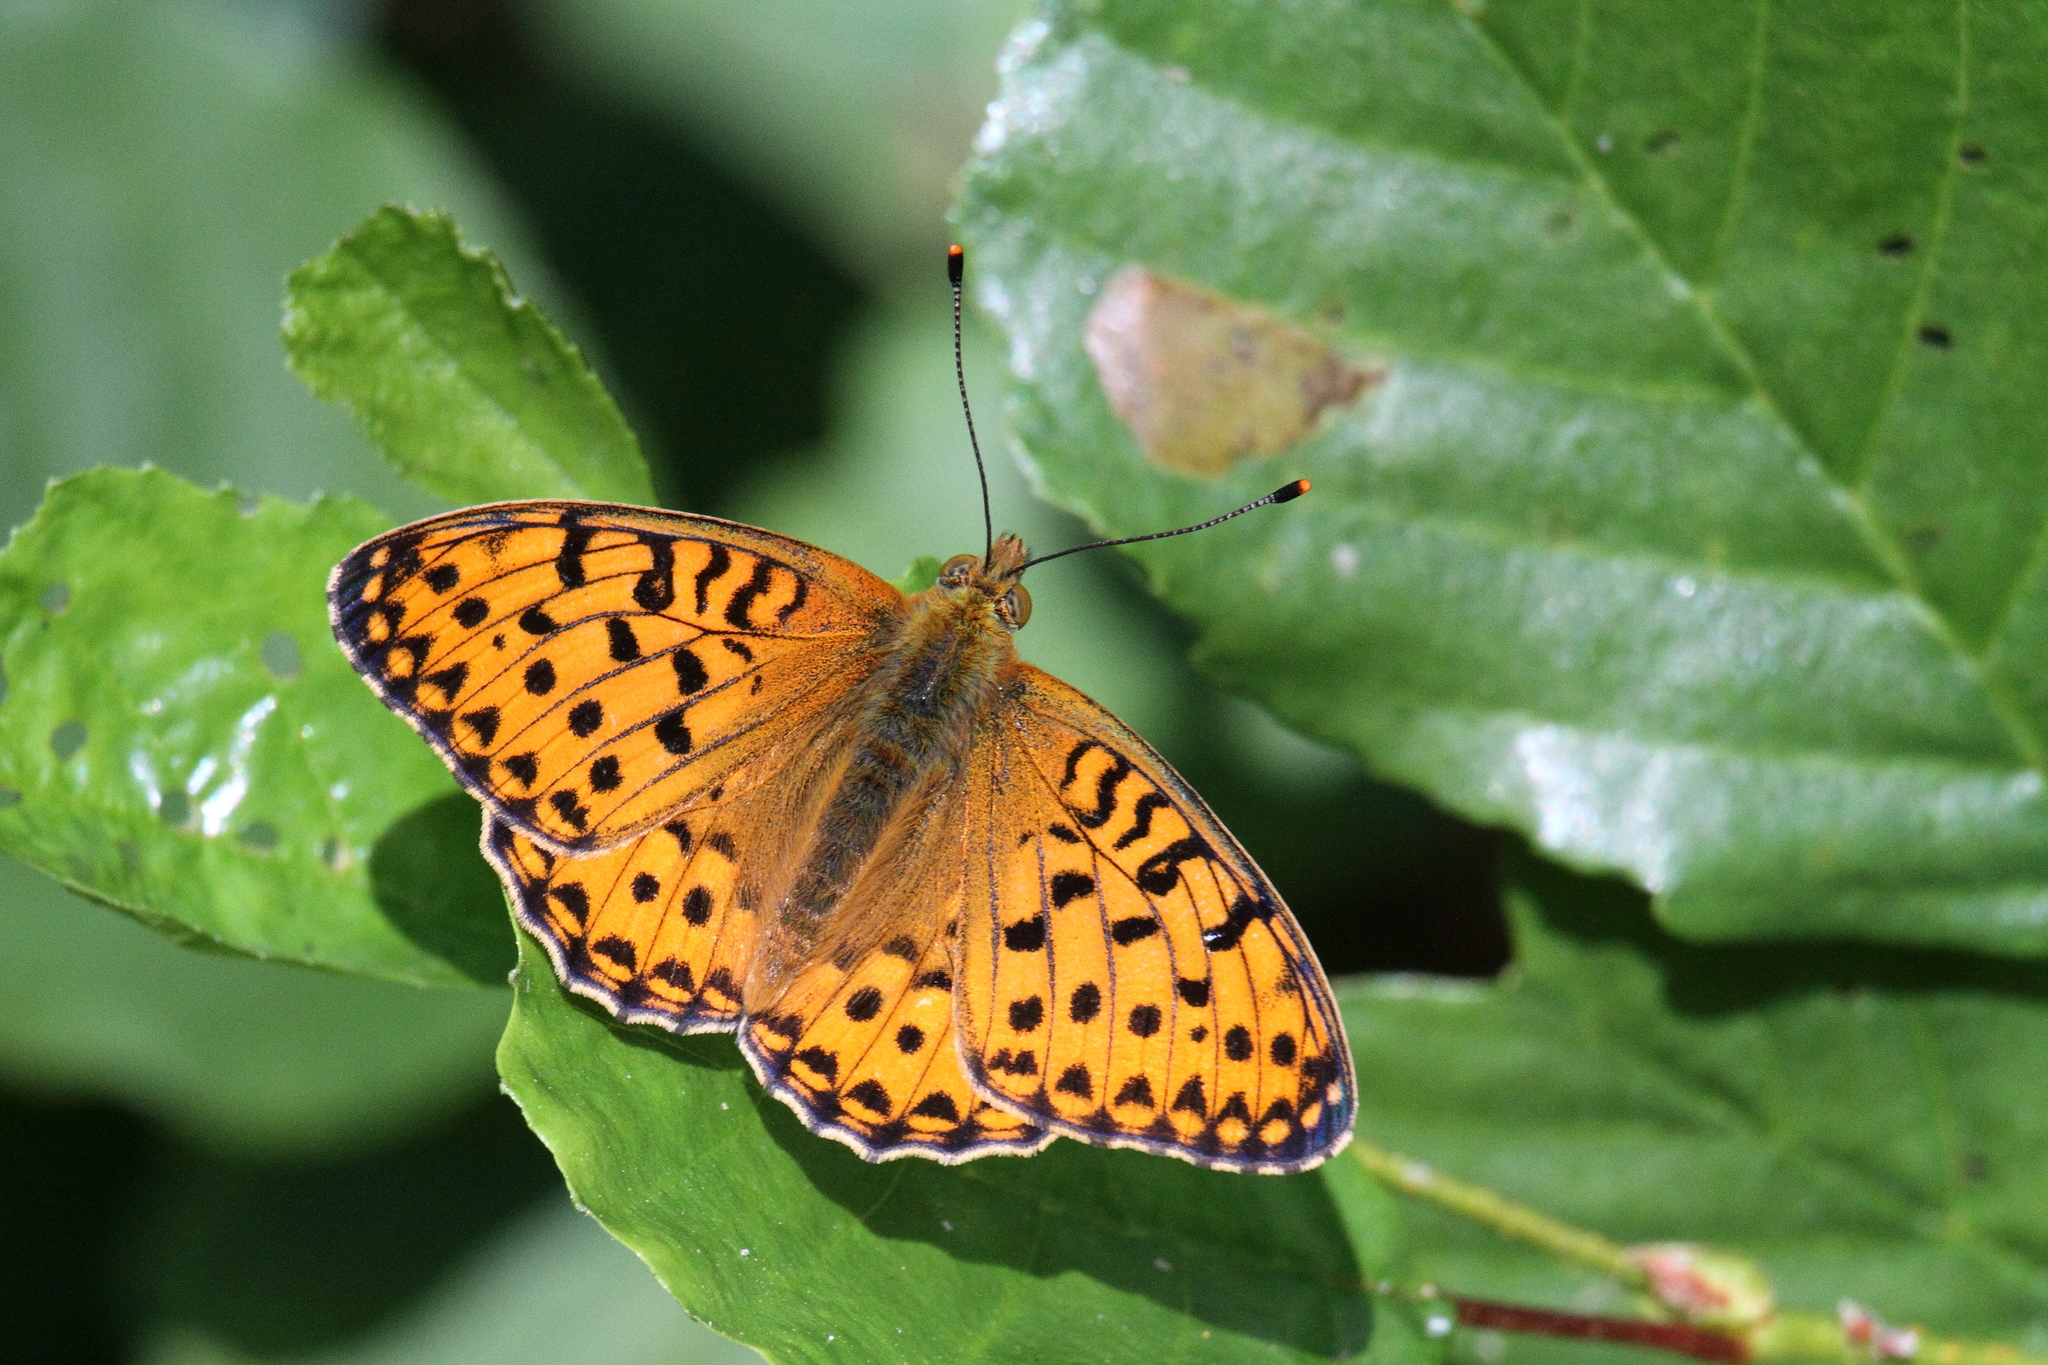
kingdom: Animalia
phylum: Arthropoda
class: Insecta
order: Lepidoptera
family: Nymphalidae
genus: Speyeria
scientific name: Speyeria aglaja
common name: Dark green fritillary
